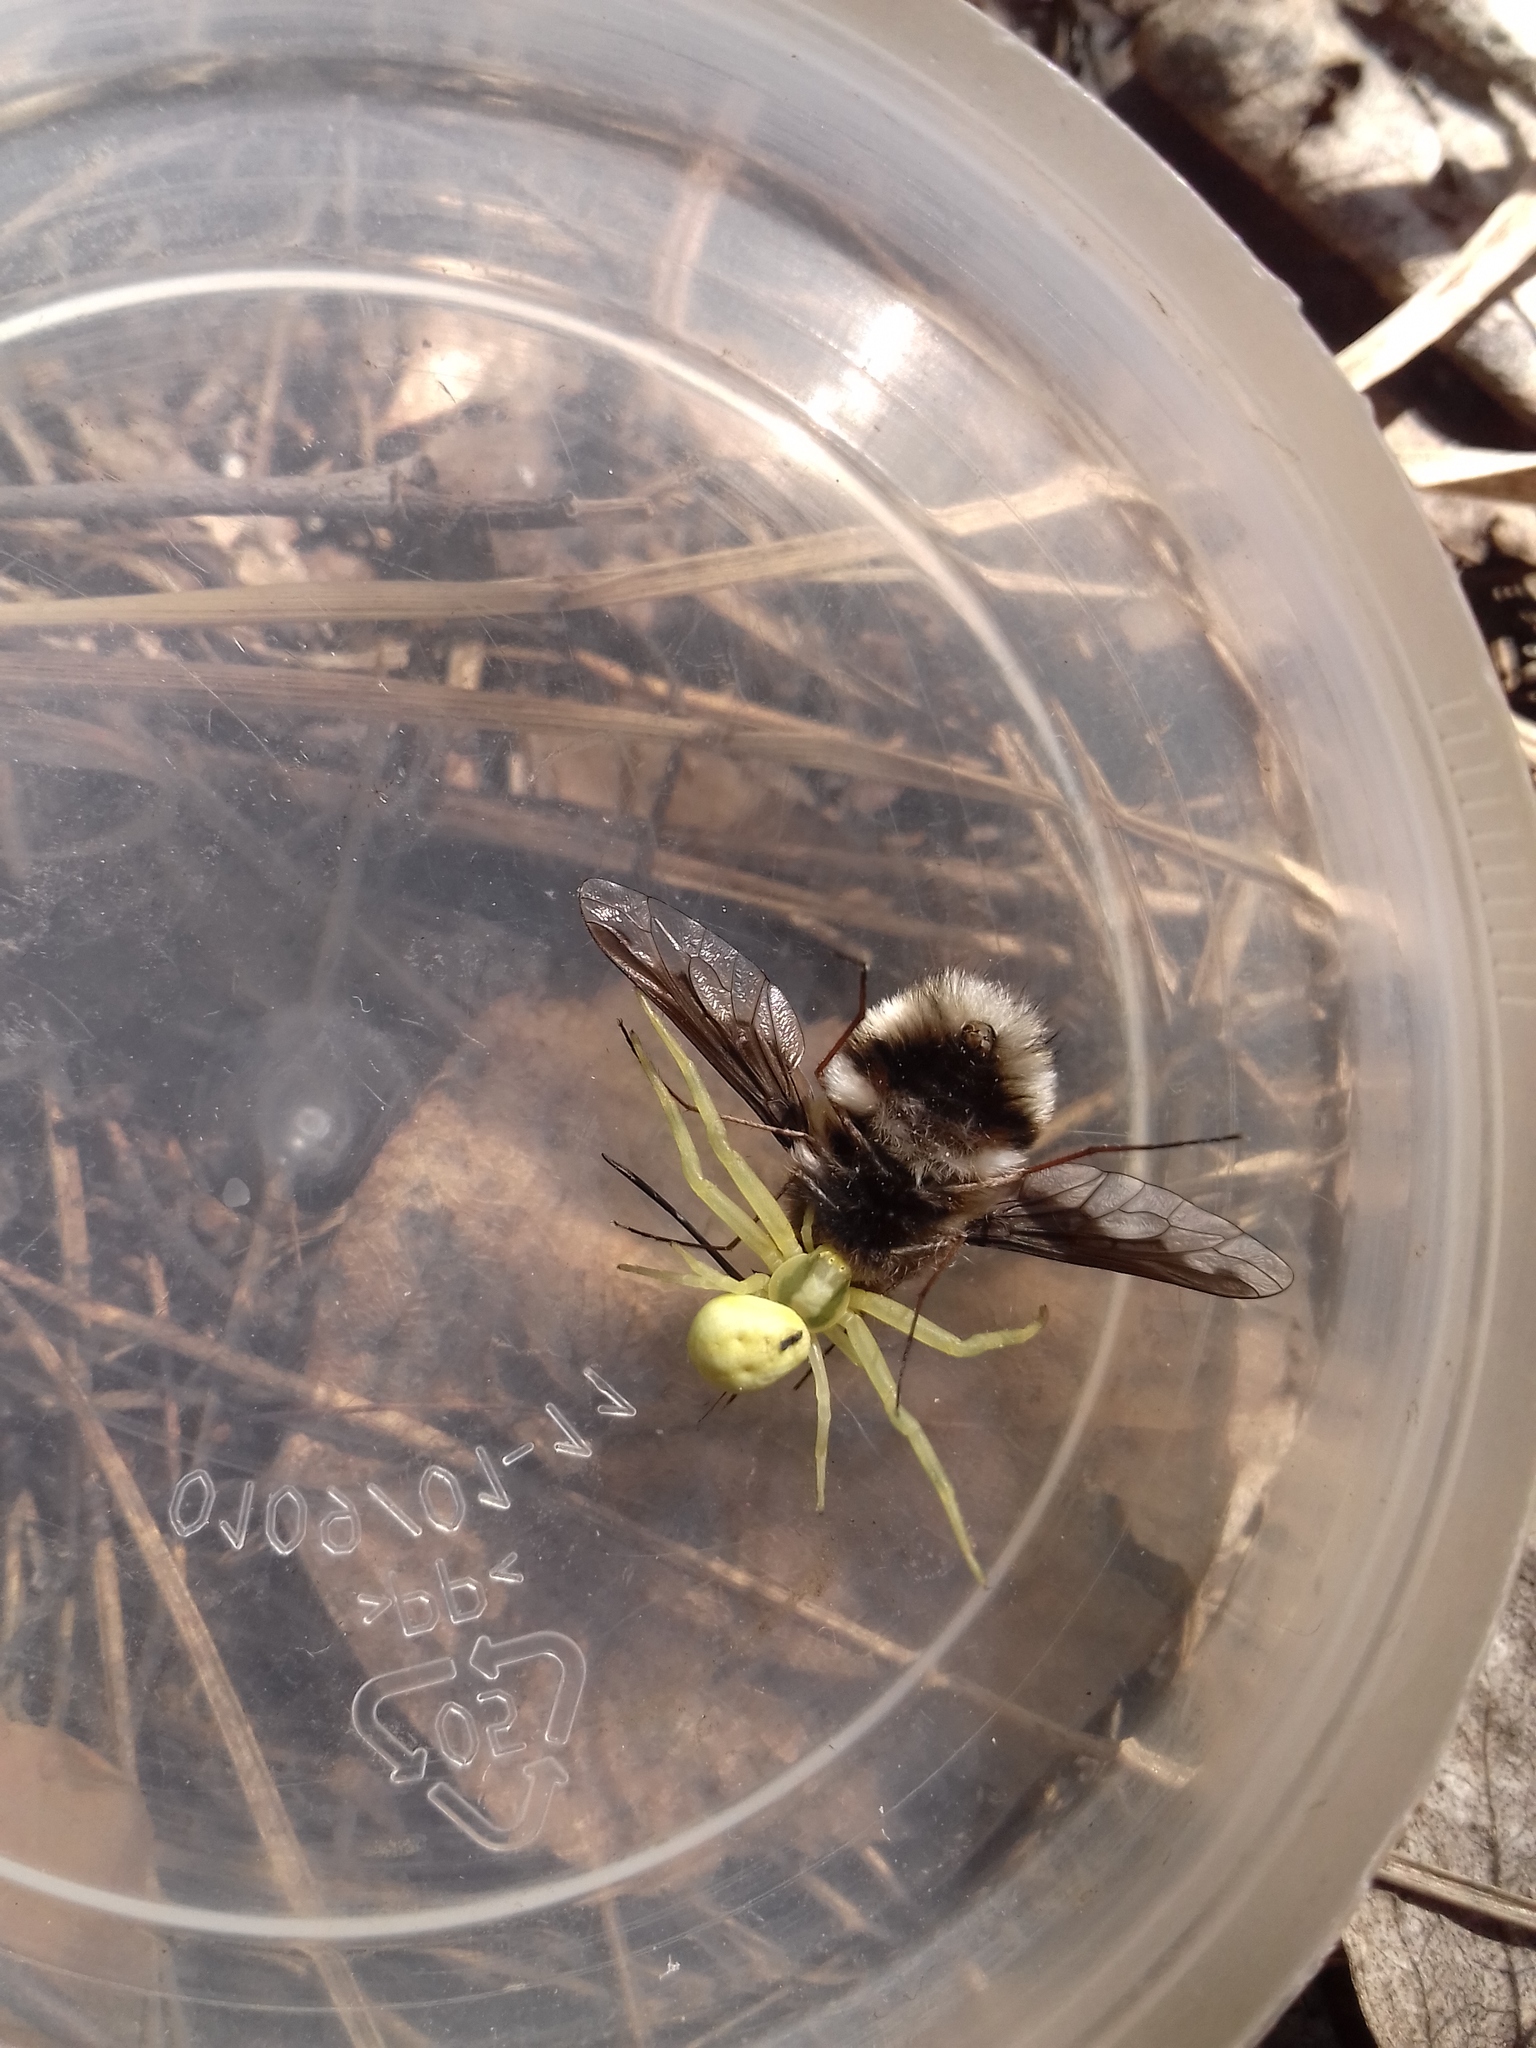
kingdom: Animalia
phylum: Arthropoda
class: Arachnida
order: Araneae
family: Thomisidae
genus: Misumena
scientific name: Misumena vatia
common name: Goldenrod crab spider
